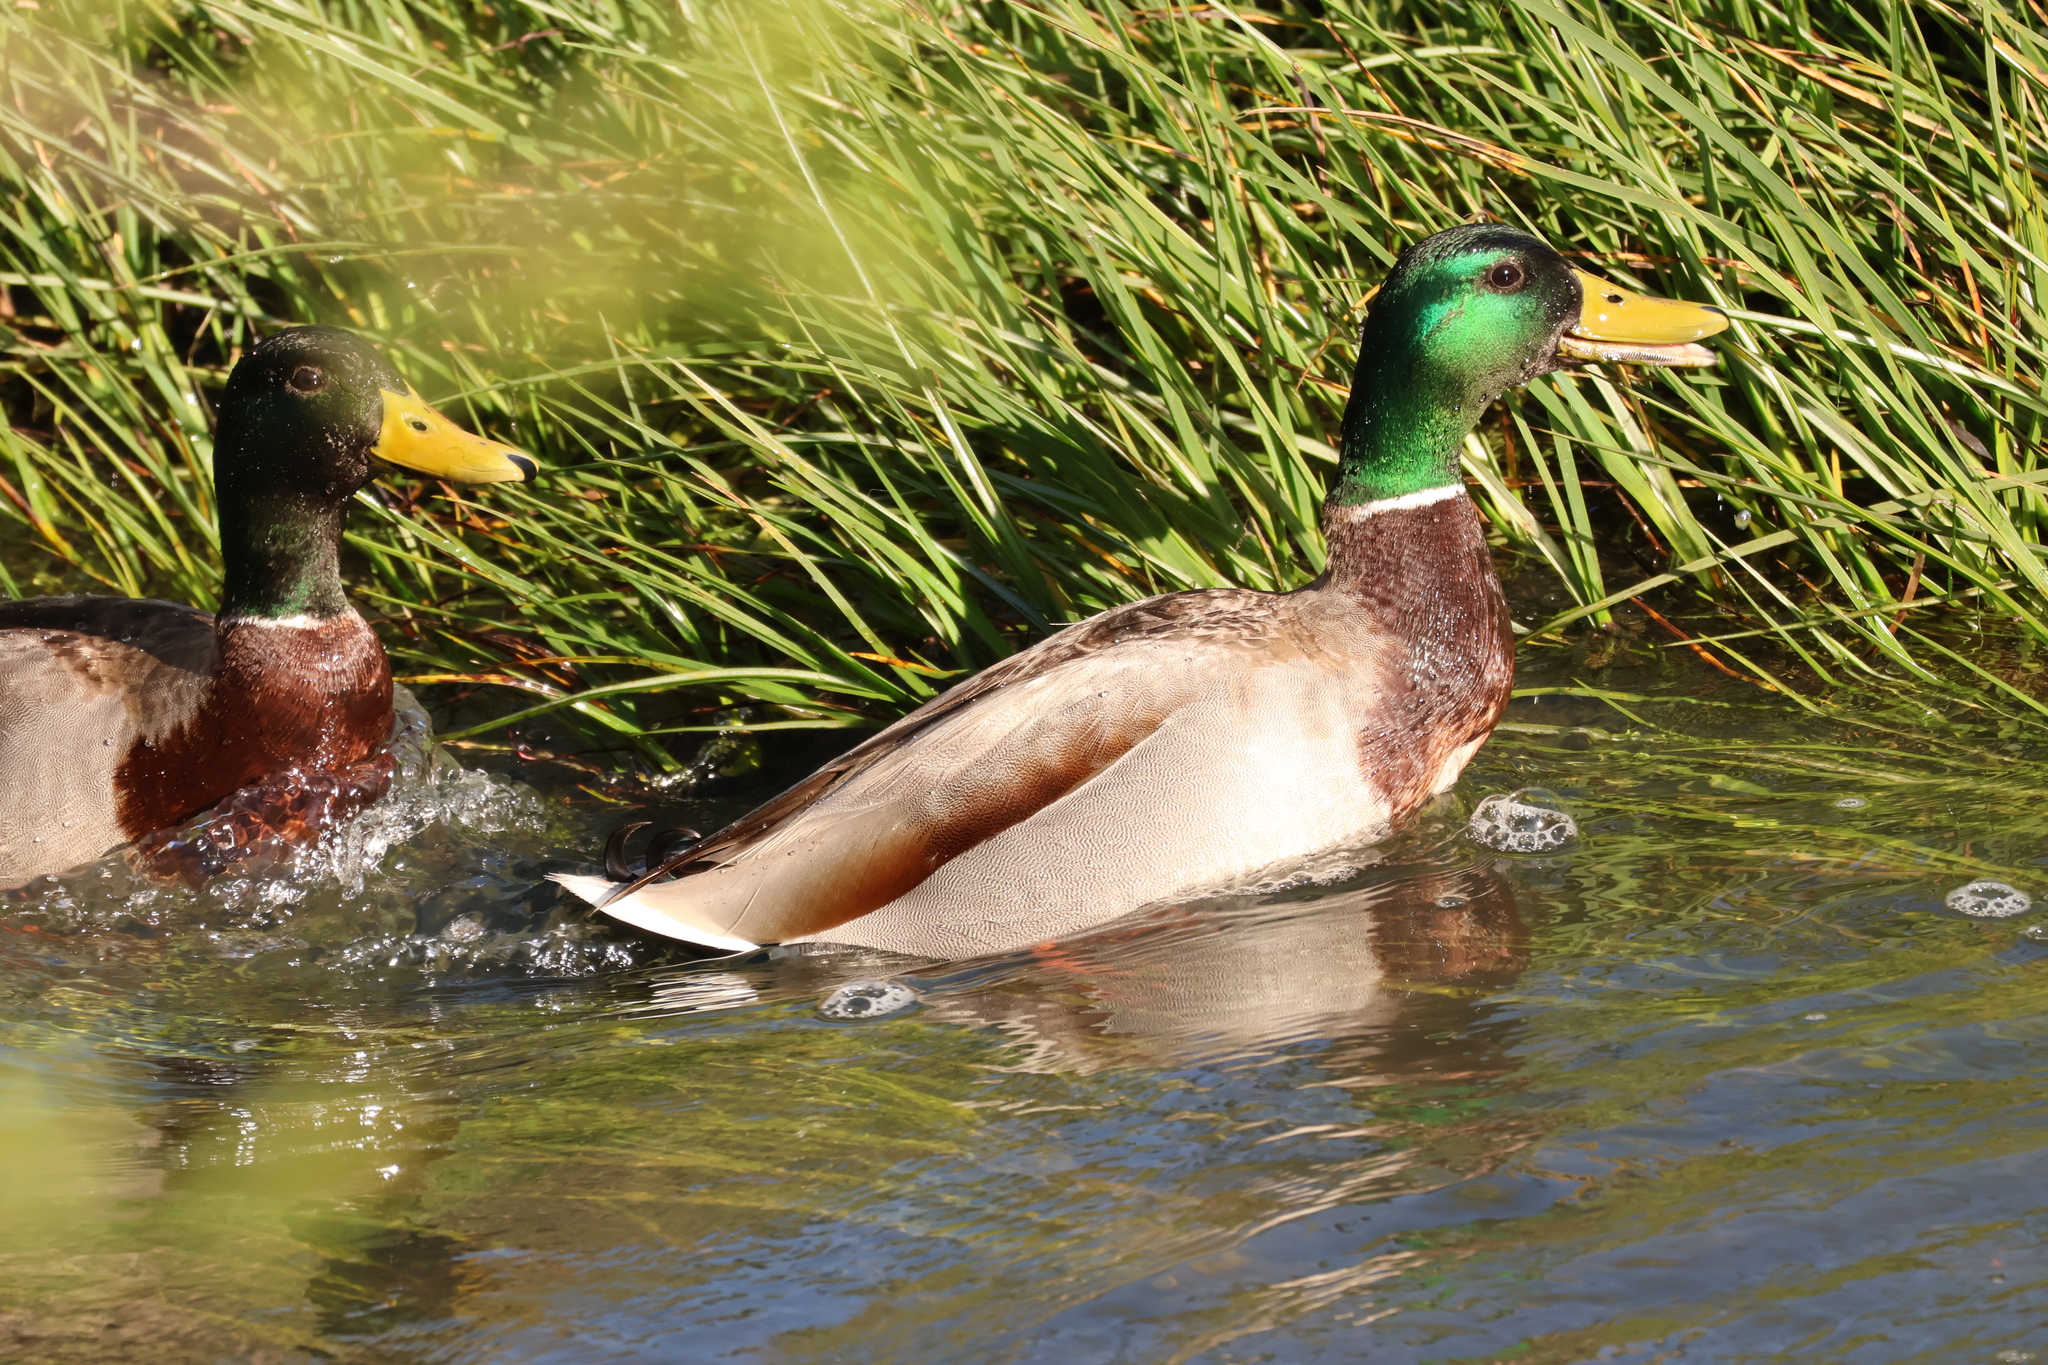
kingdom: Animalia
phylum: Chordata
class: Aves
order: Anseriformes
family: Anatidae
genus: Anas
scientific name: Anas platyrhynchos
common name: Mallard
